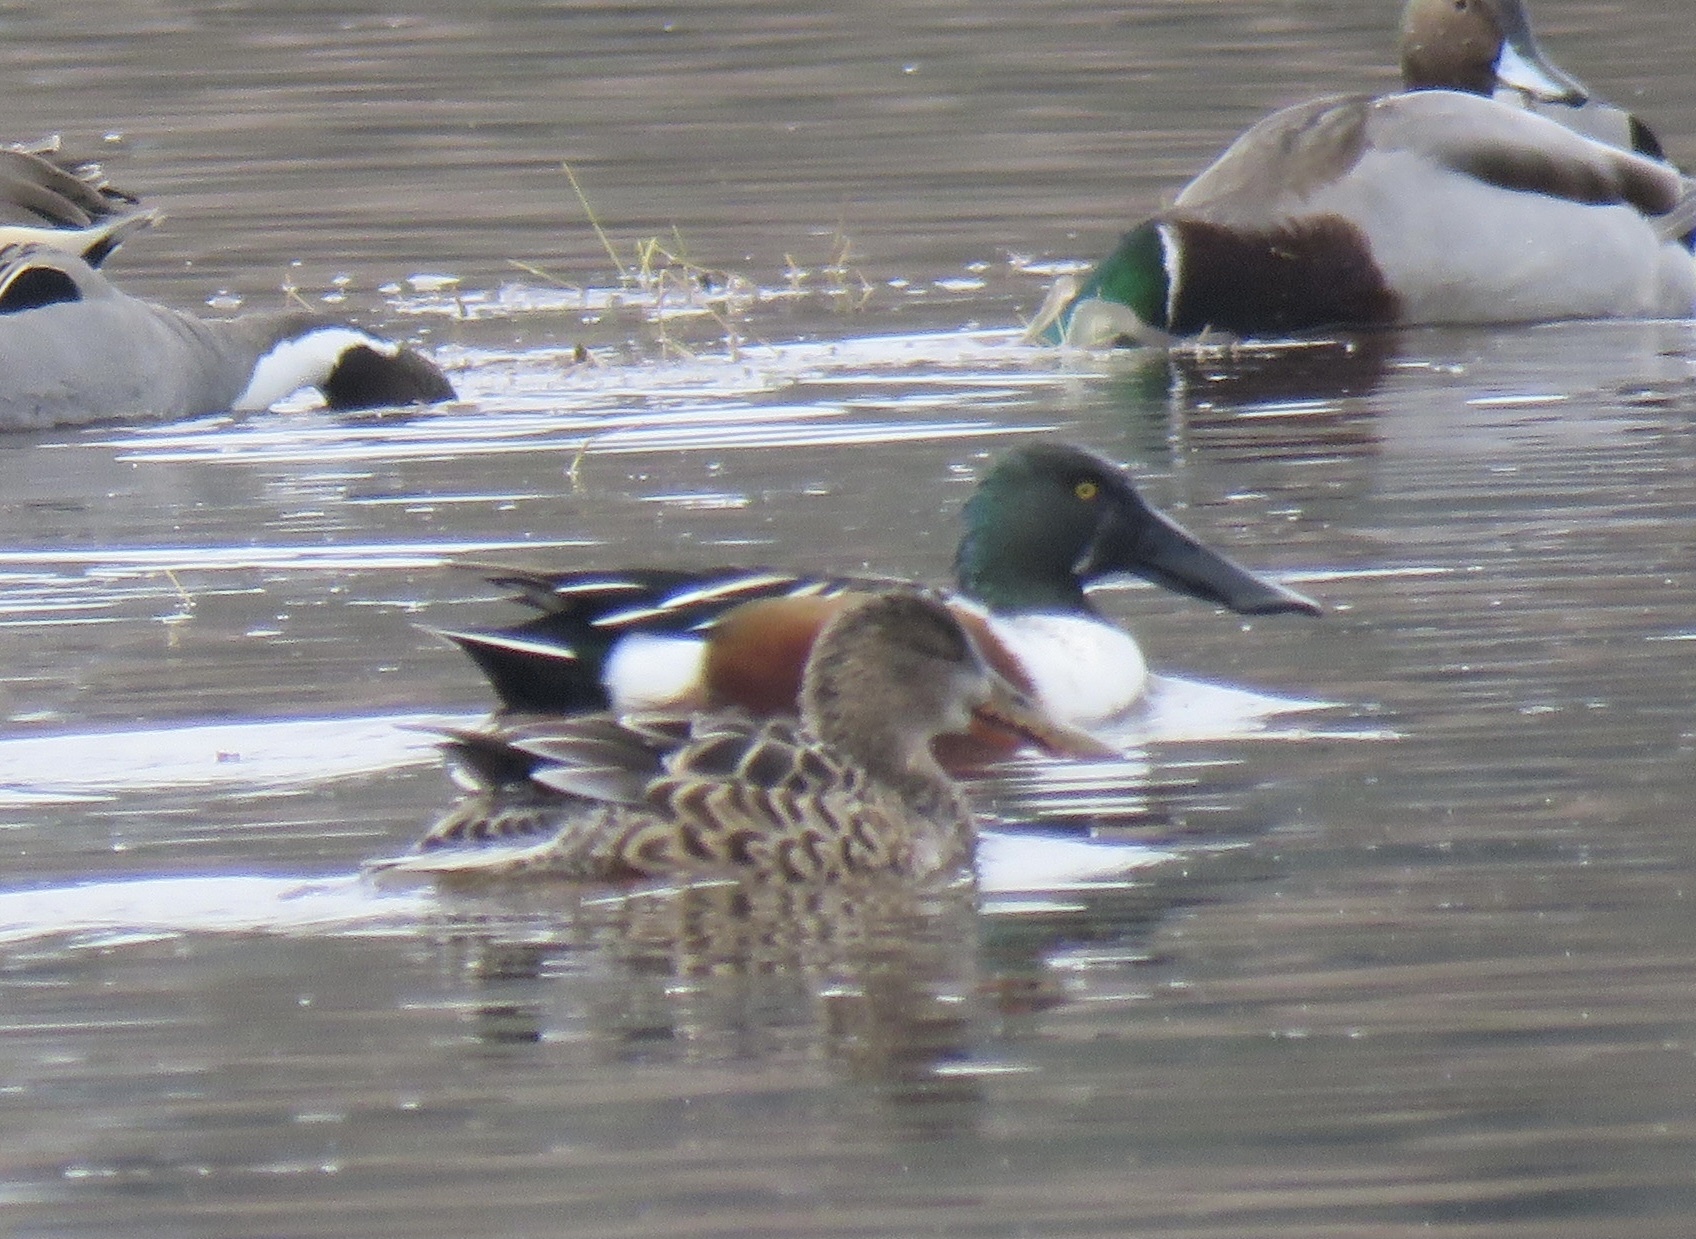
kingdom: Animalia
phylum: Chordata
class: Aves
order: Anseriformes
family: Anatidae
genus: Spatula
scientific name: Spatula clypeata
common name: Northern shoveler
